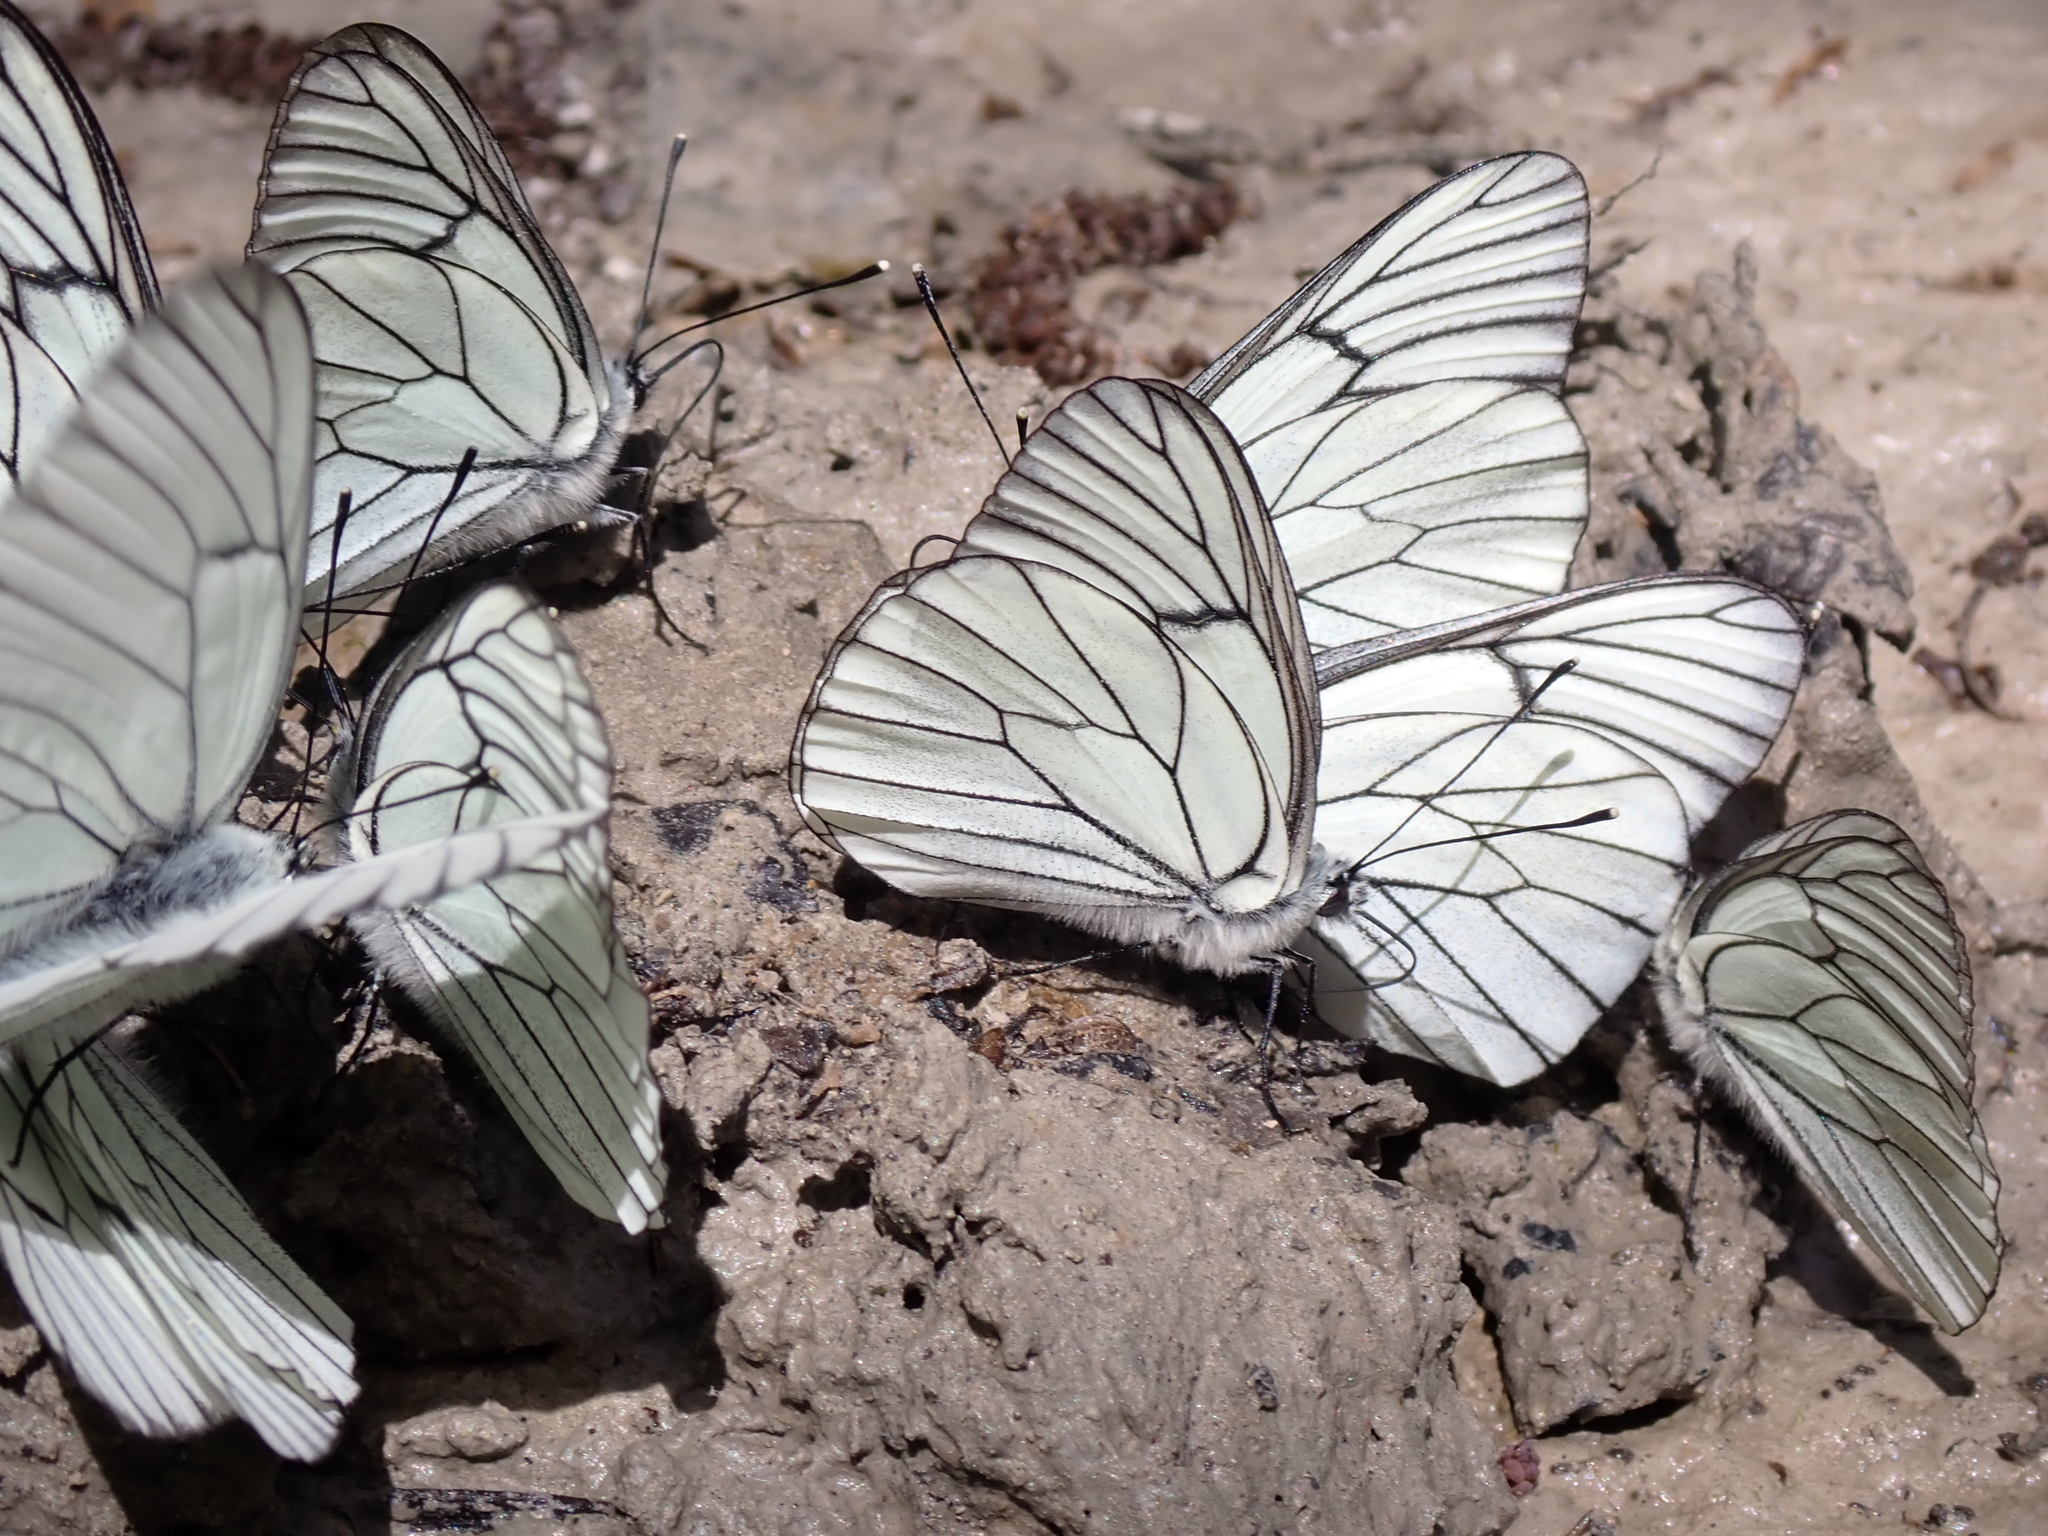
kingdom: Animalia
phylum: Arthropoda
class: Insecta
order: Lepidoptera
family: Pieridae
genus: Aporia
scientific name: Aporia crataegi
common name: Black-veined white
